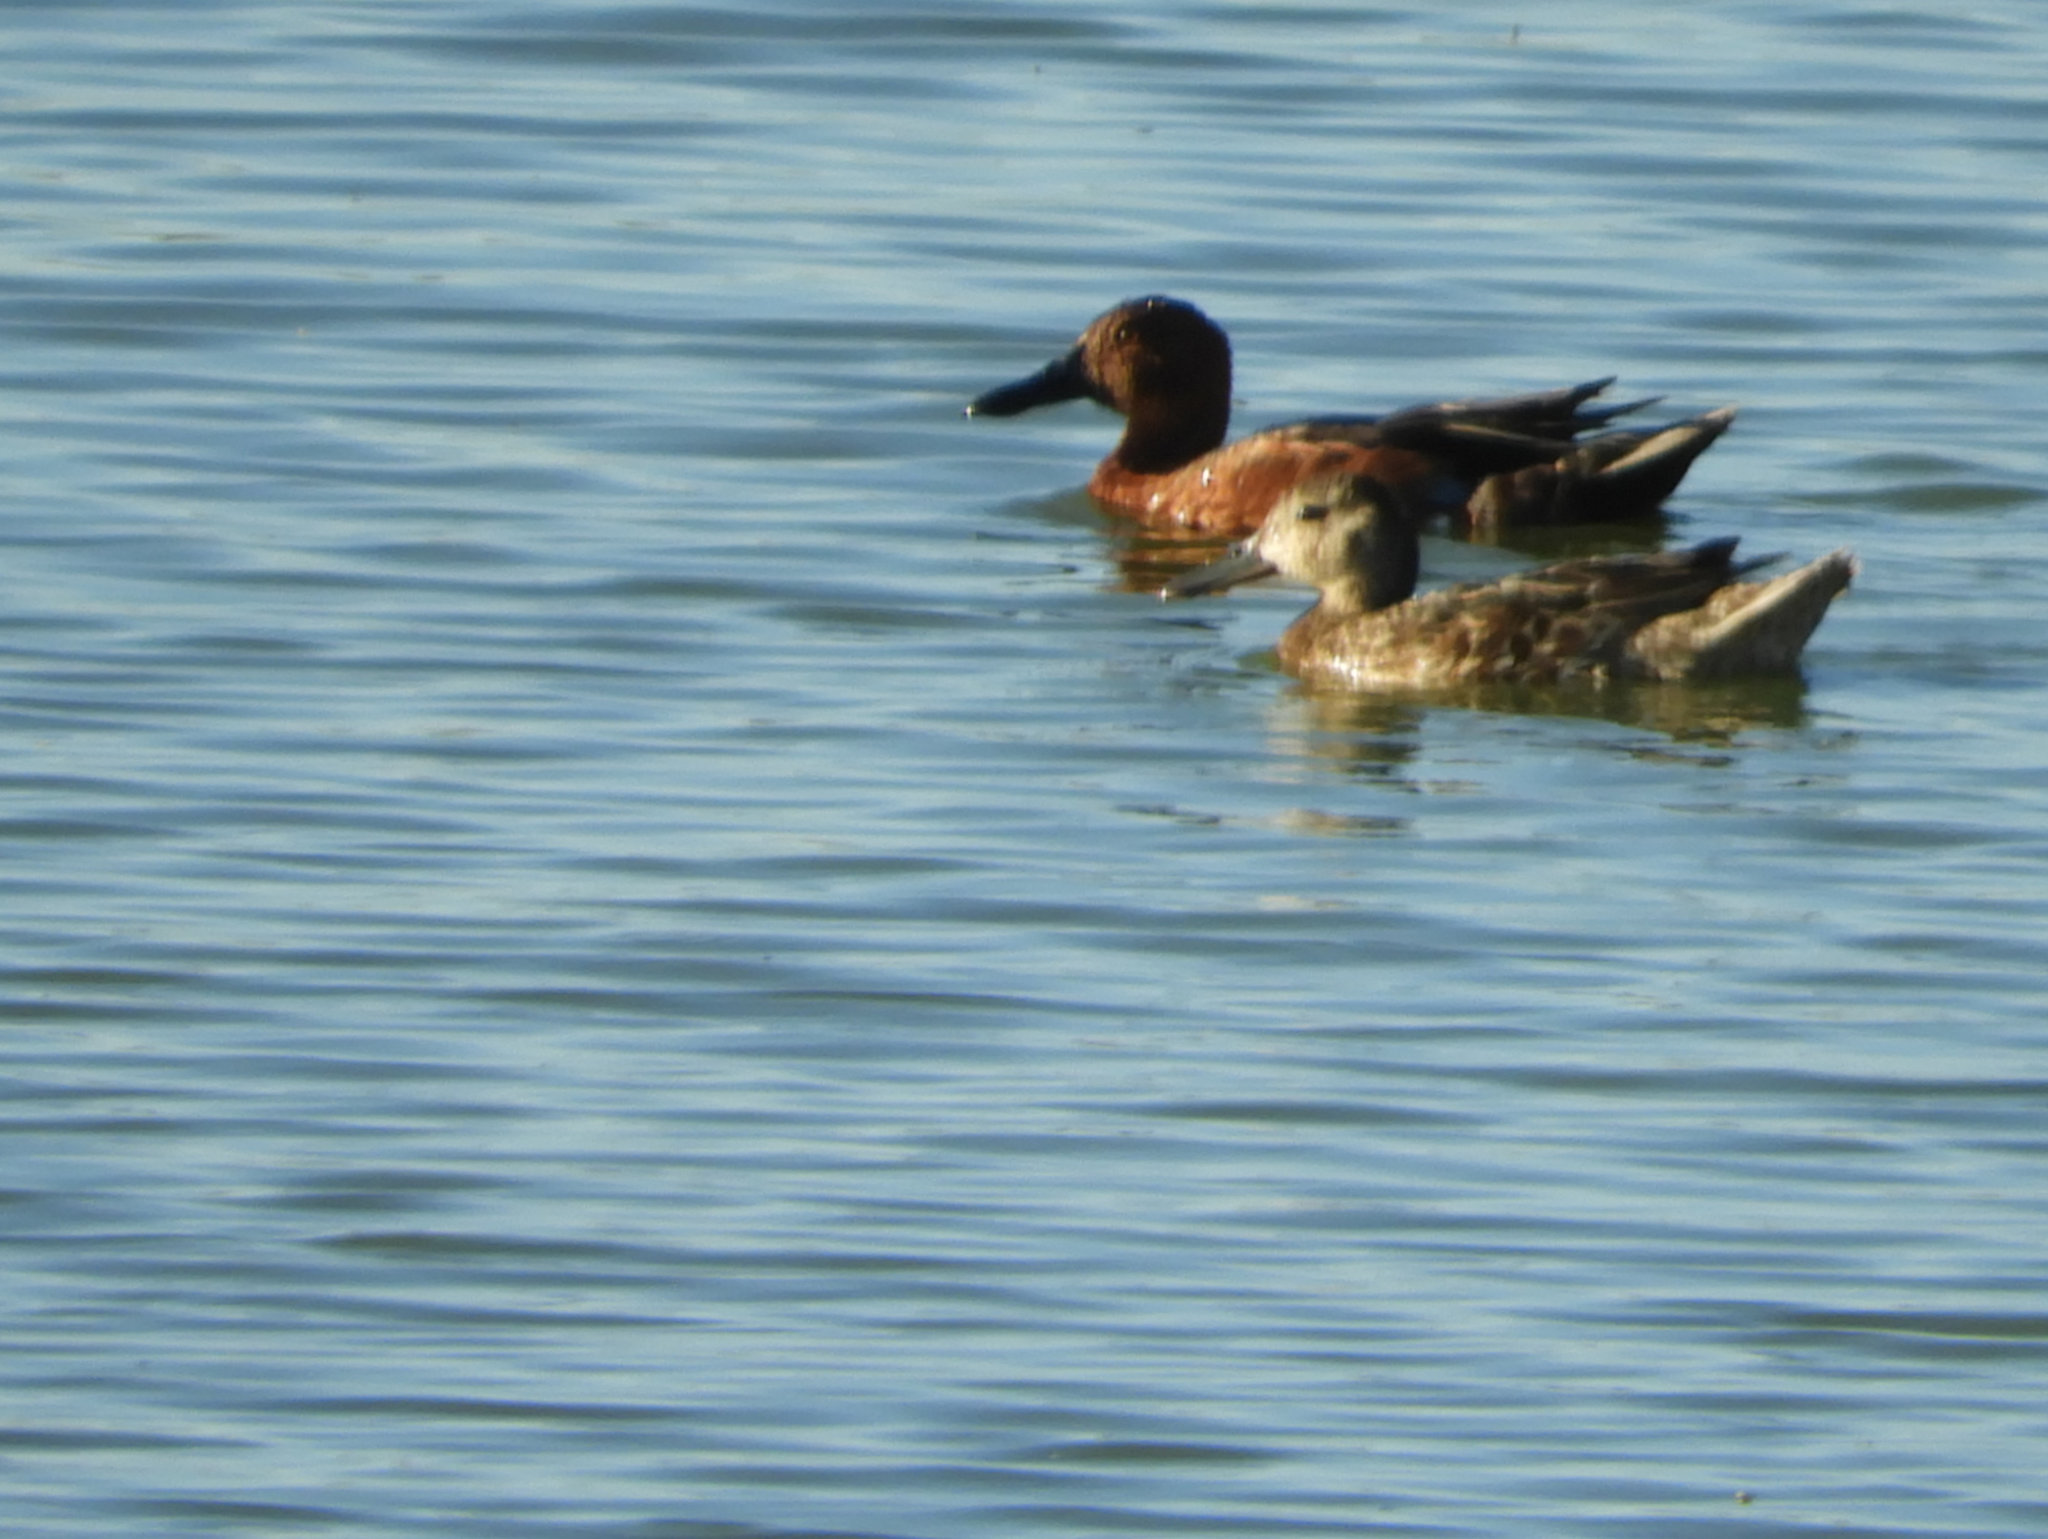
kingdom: Animalia
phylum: Chordata
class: Aves
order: Anseriformes
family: Anatidae
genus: Spatula
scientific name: Spatula cyanoptera
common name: Cinnamon teal
